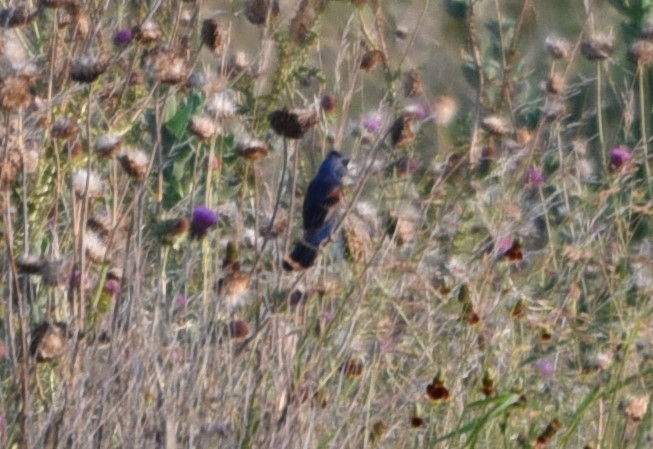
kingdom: Animalia
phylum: Chordata
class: Aves
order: Passeriformes
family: Cardinalidae
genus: Passerina
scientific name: Passerina caerulea
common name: Blue grosbeak
